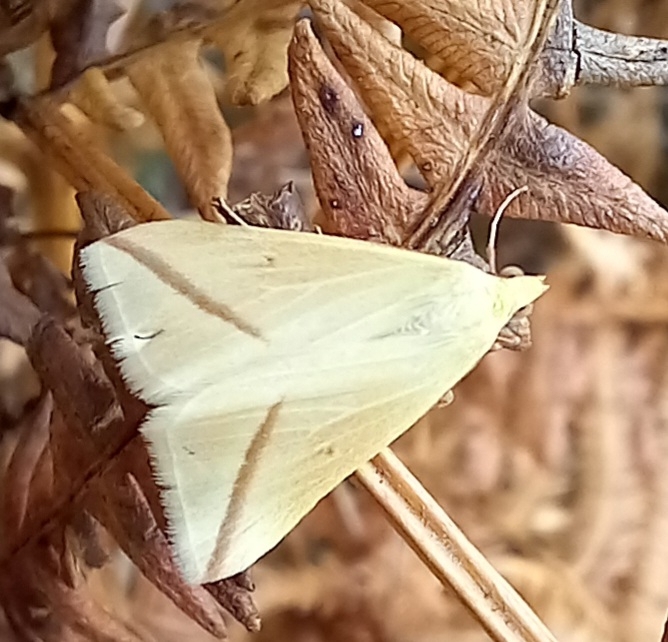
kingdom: Animalia
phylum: Arthropoda
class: Insecta
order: Lepidoptera
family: Geometridae
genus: Rhodometra
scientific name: Rhodometra sacraria
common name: Vestal
